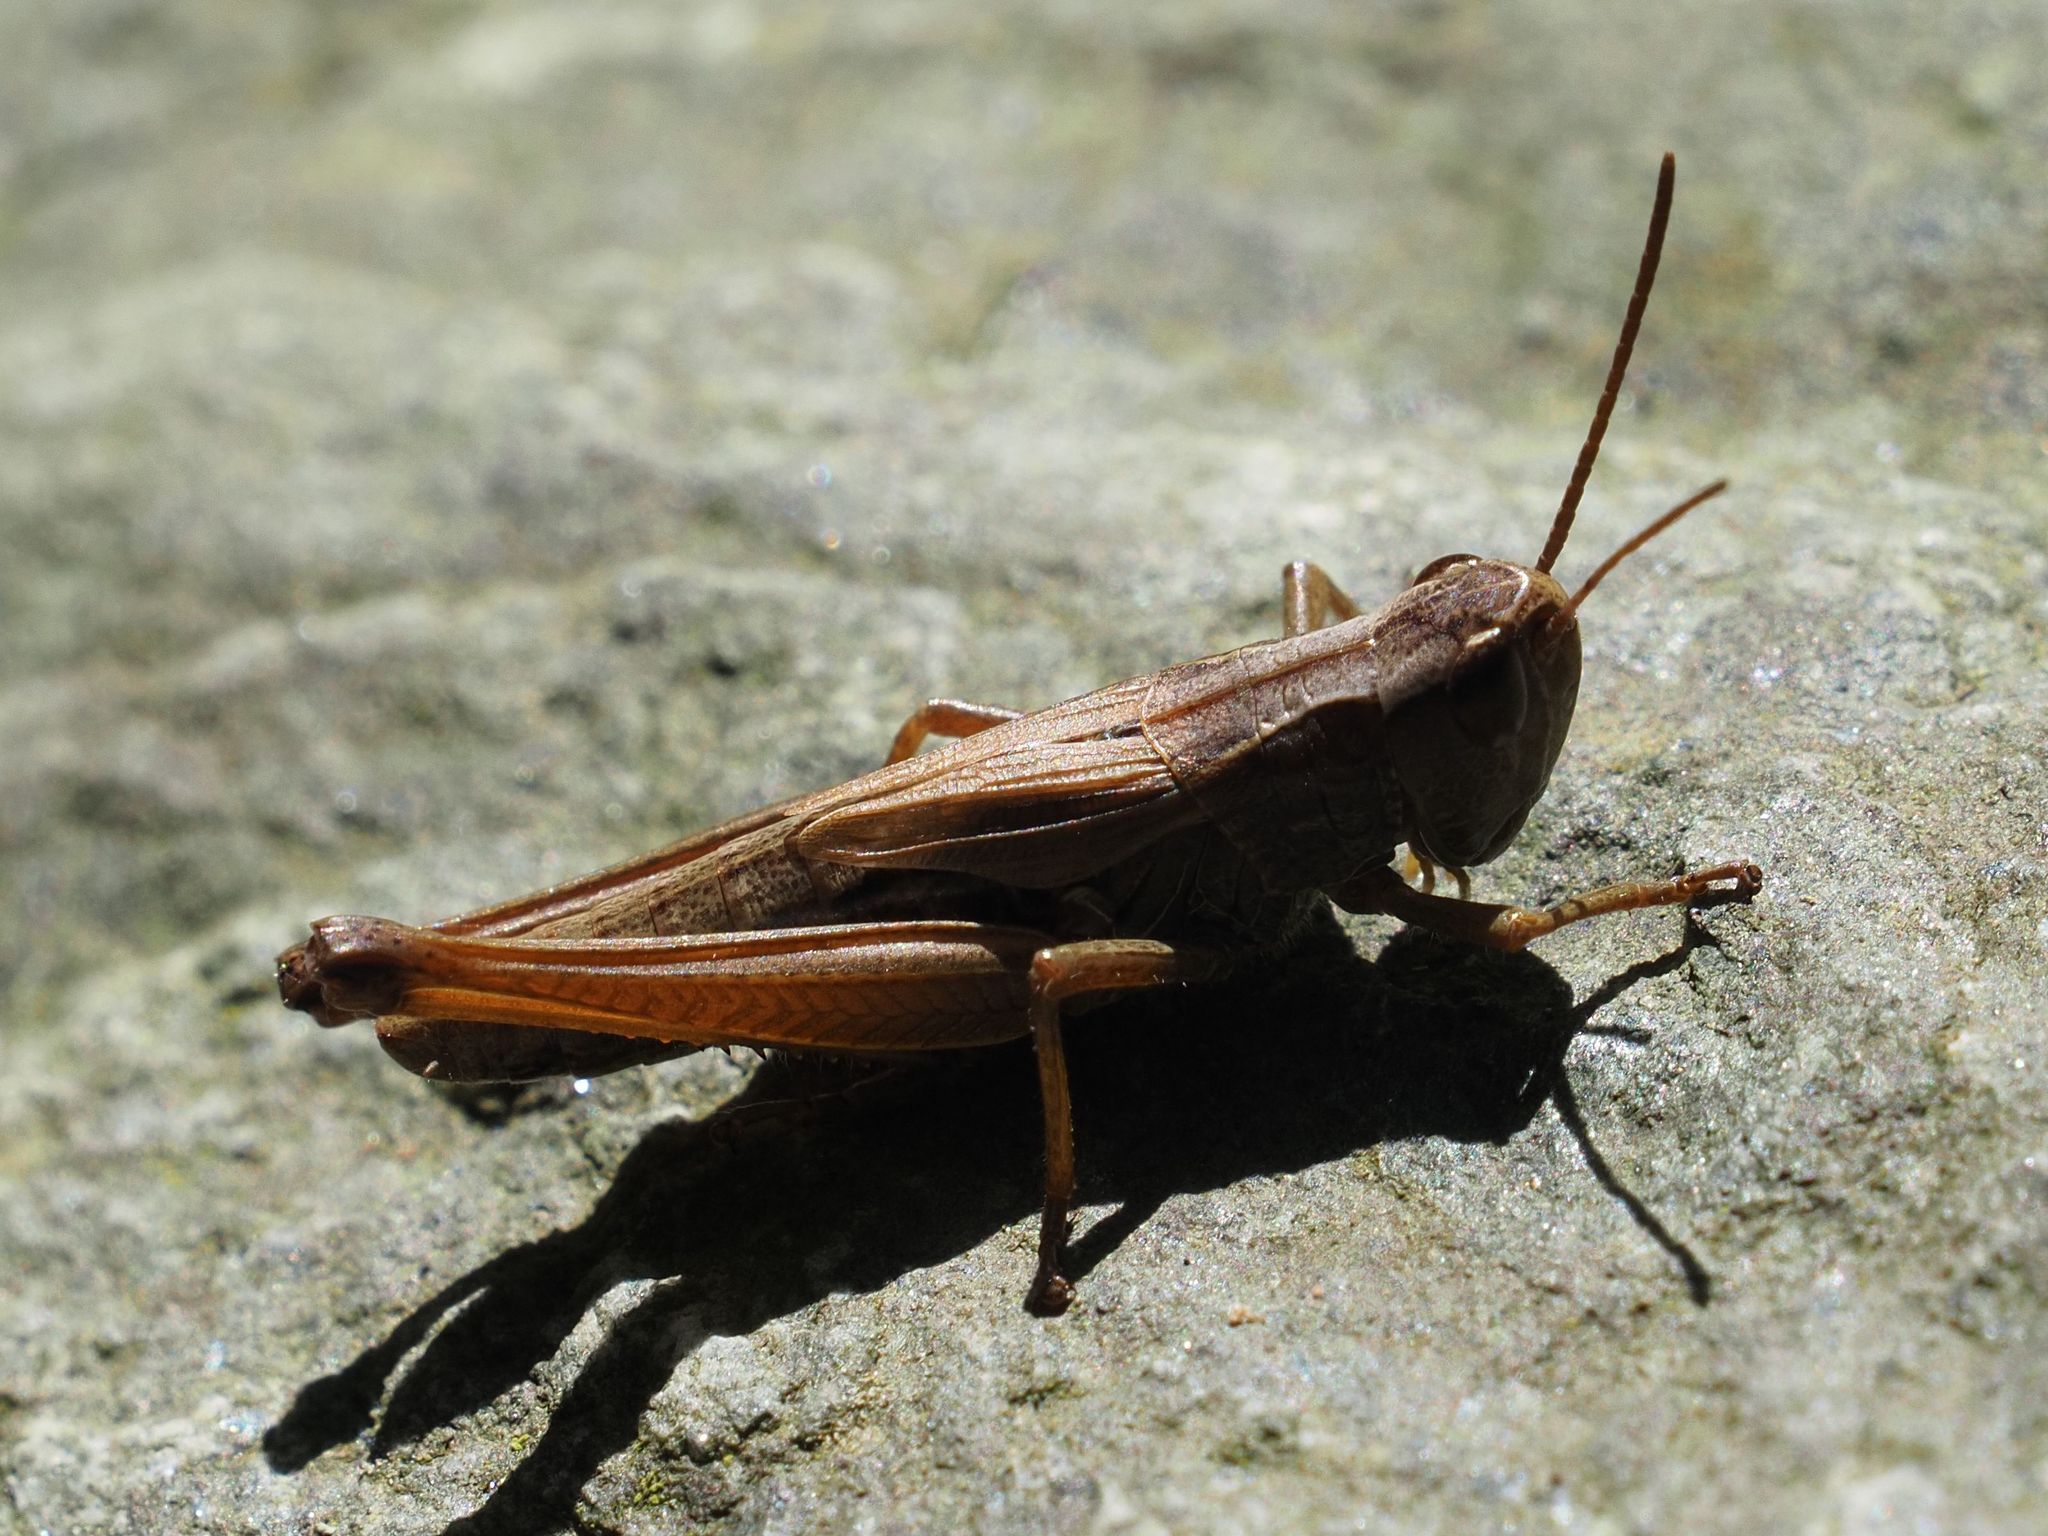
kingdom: Animalia
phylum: Arthropoda
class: Insecta
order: Orthoptera
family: Acrididae
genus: Pseudochorthippus
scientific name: Pseudochorthippus parallelus
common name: Meadow grasshopper
